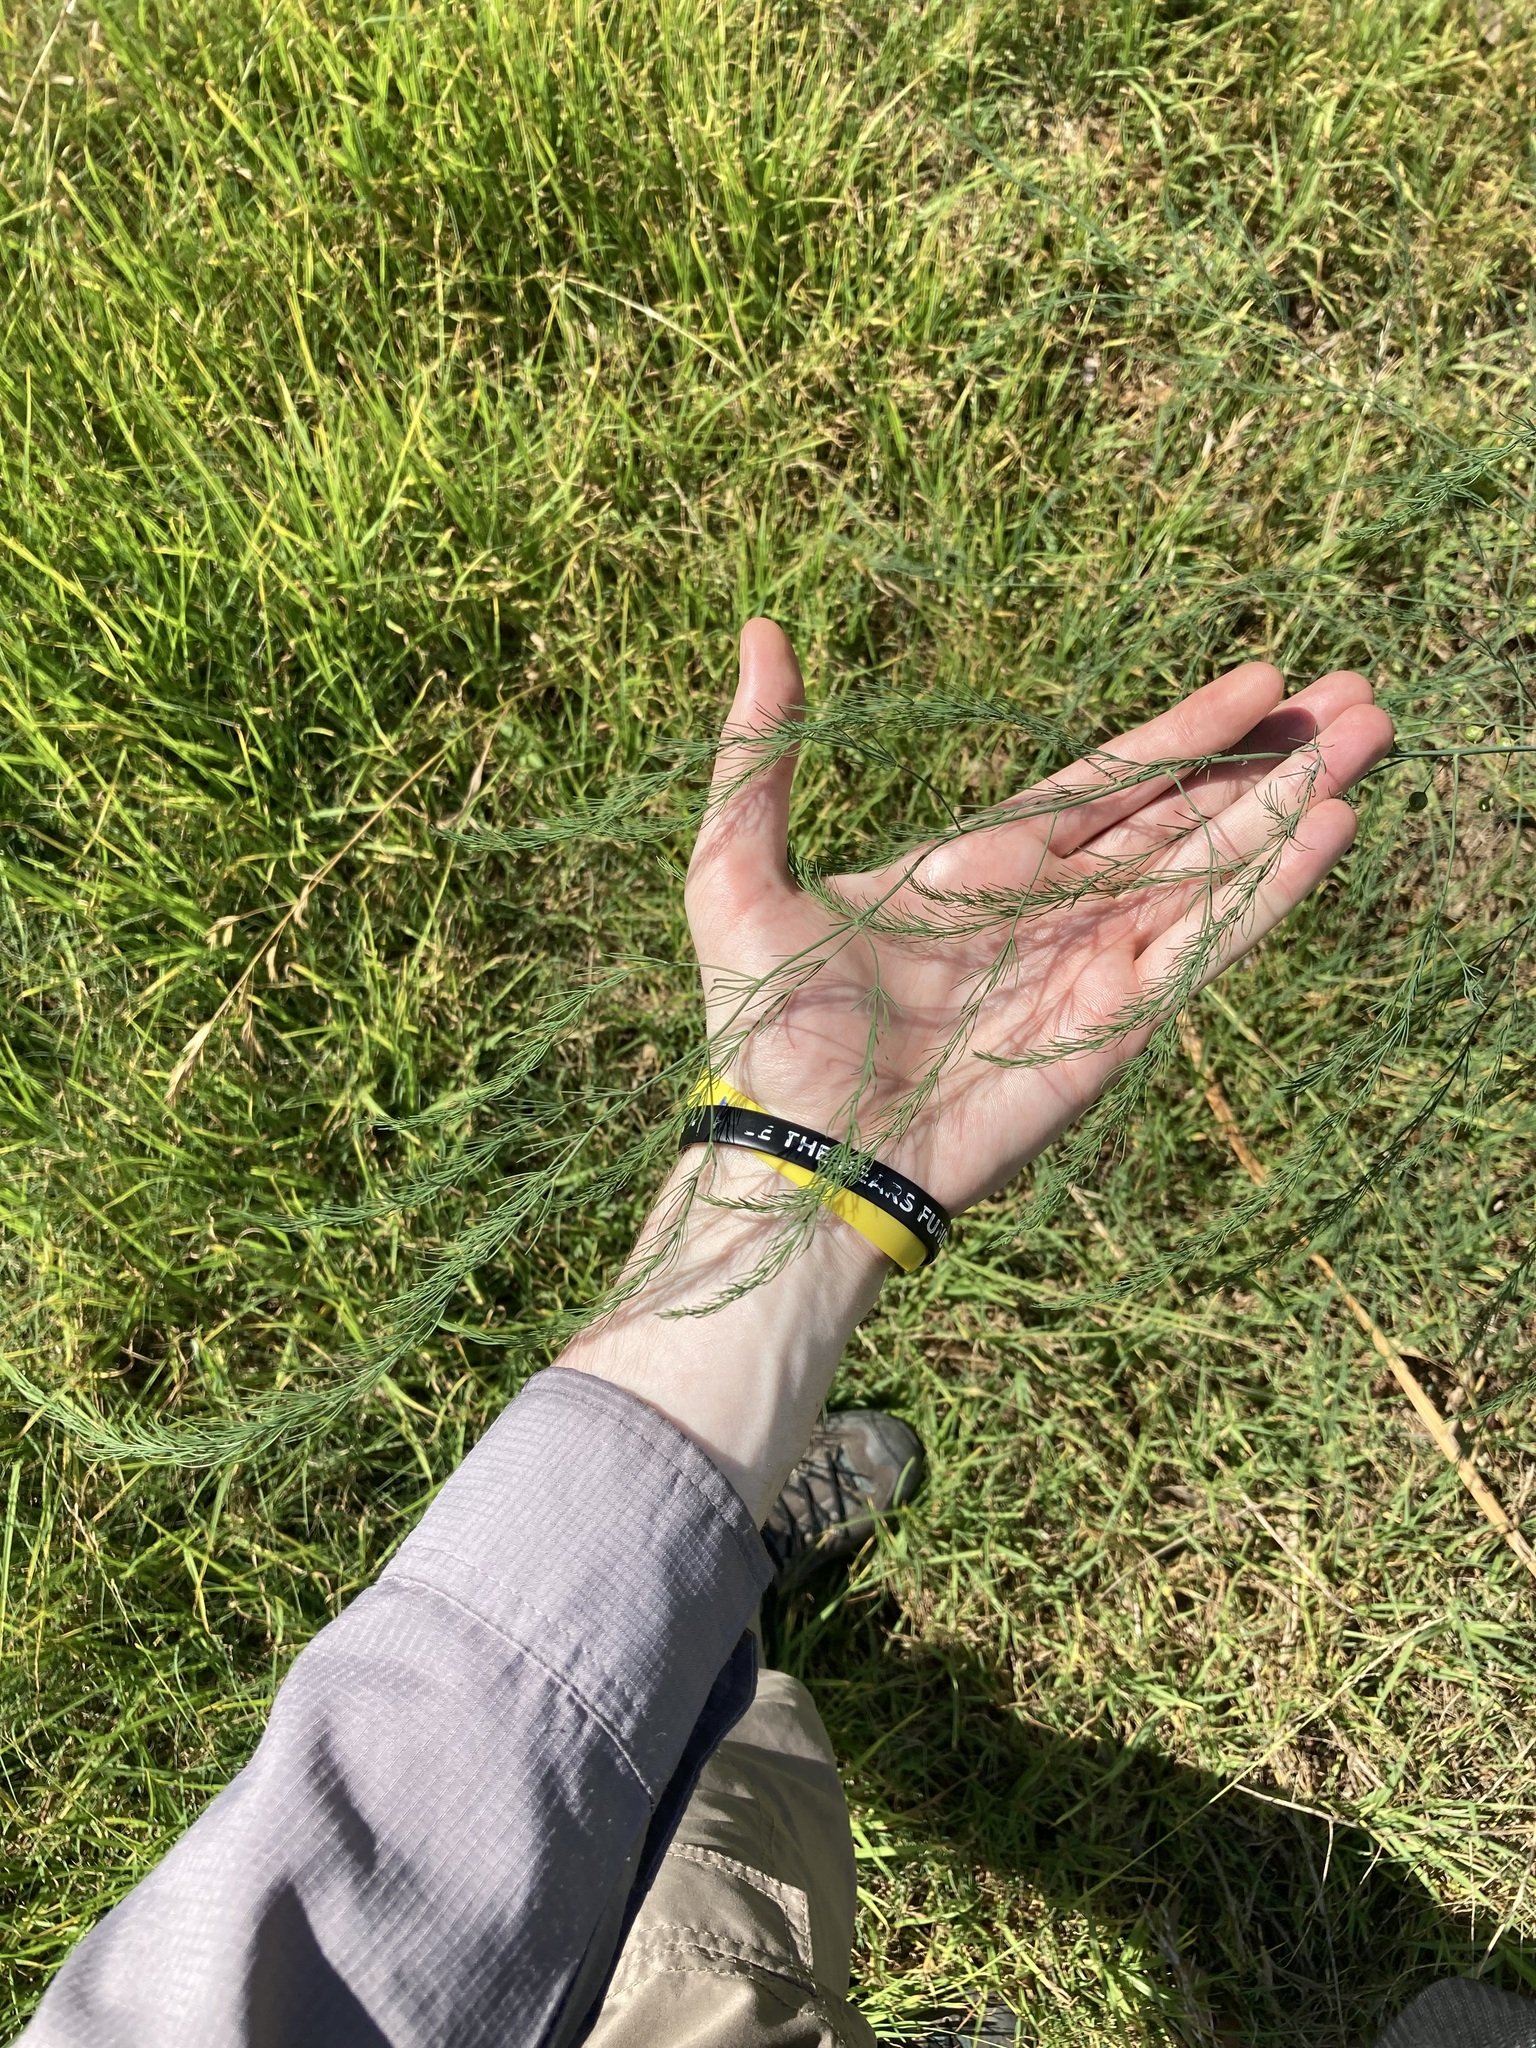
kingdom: Plantae
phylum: Tracheophyta
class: Liliopsida
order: Asparagales
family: Asparagaceae
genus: Asparagus
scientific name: Asparagus officinalis
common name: Garden asparagus
